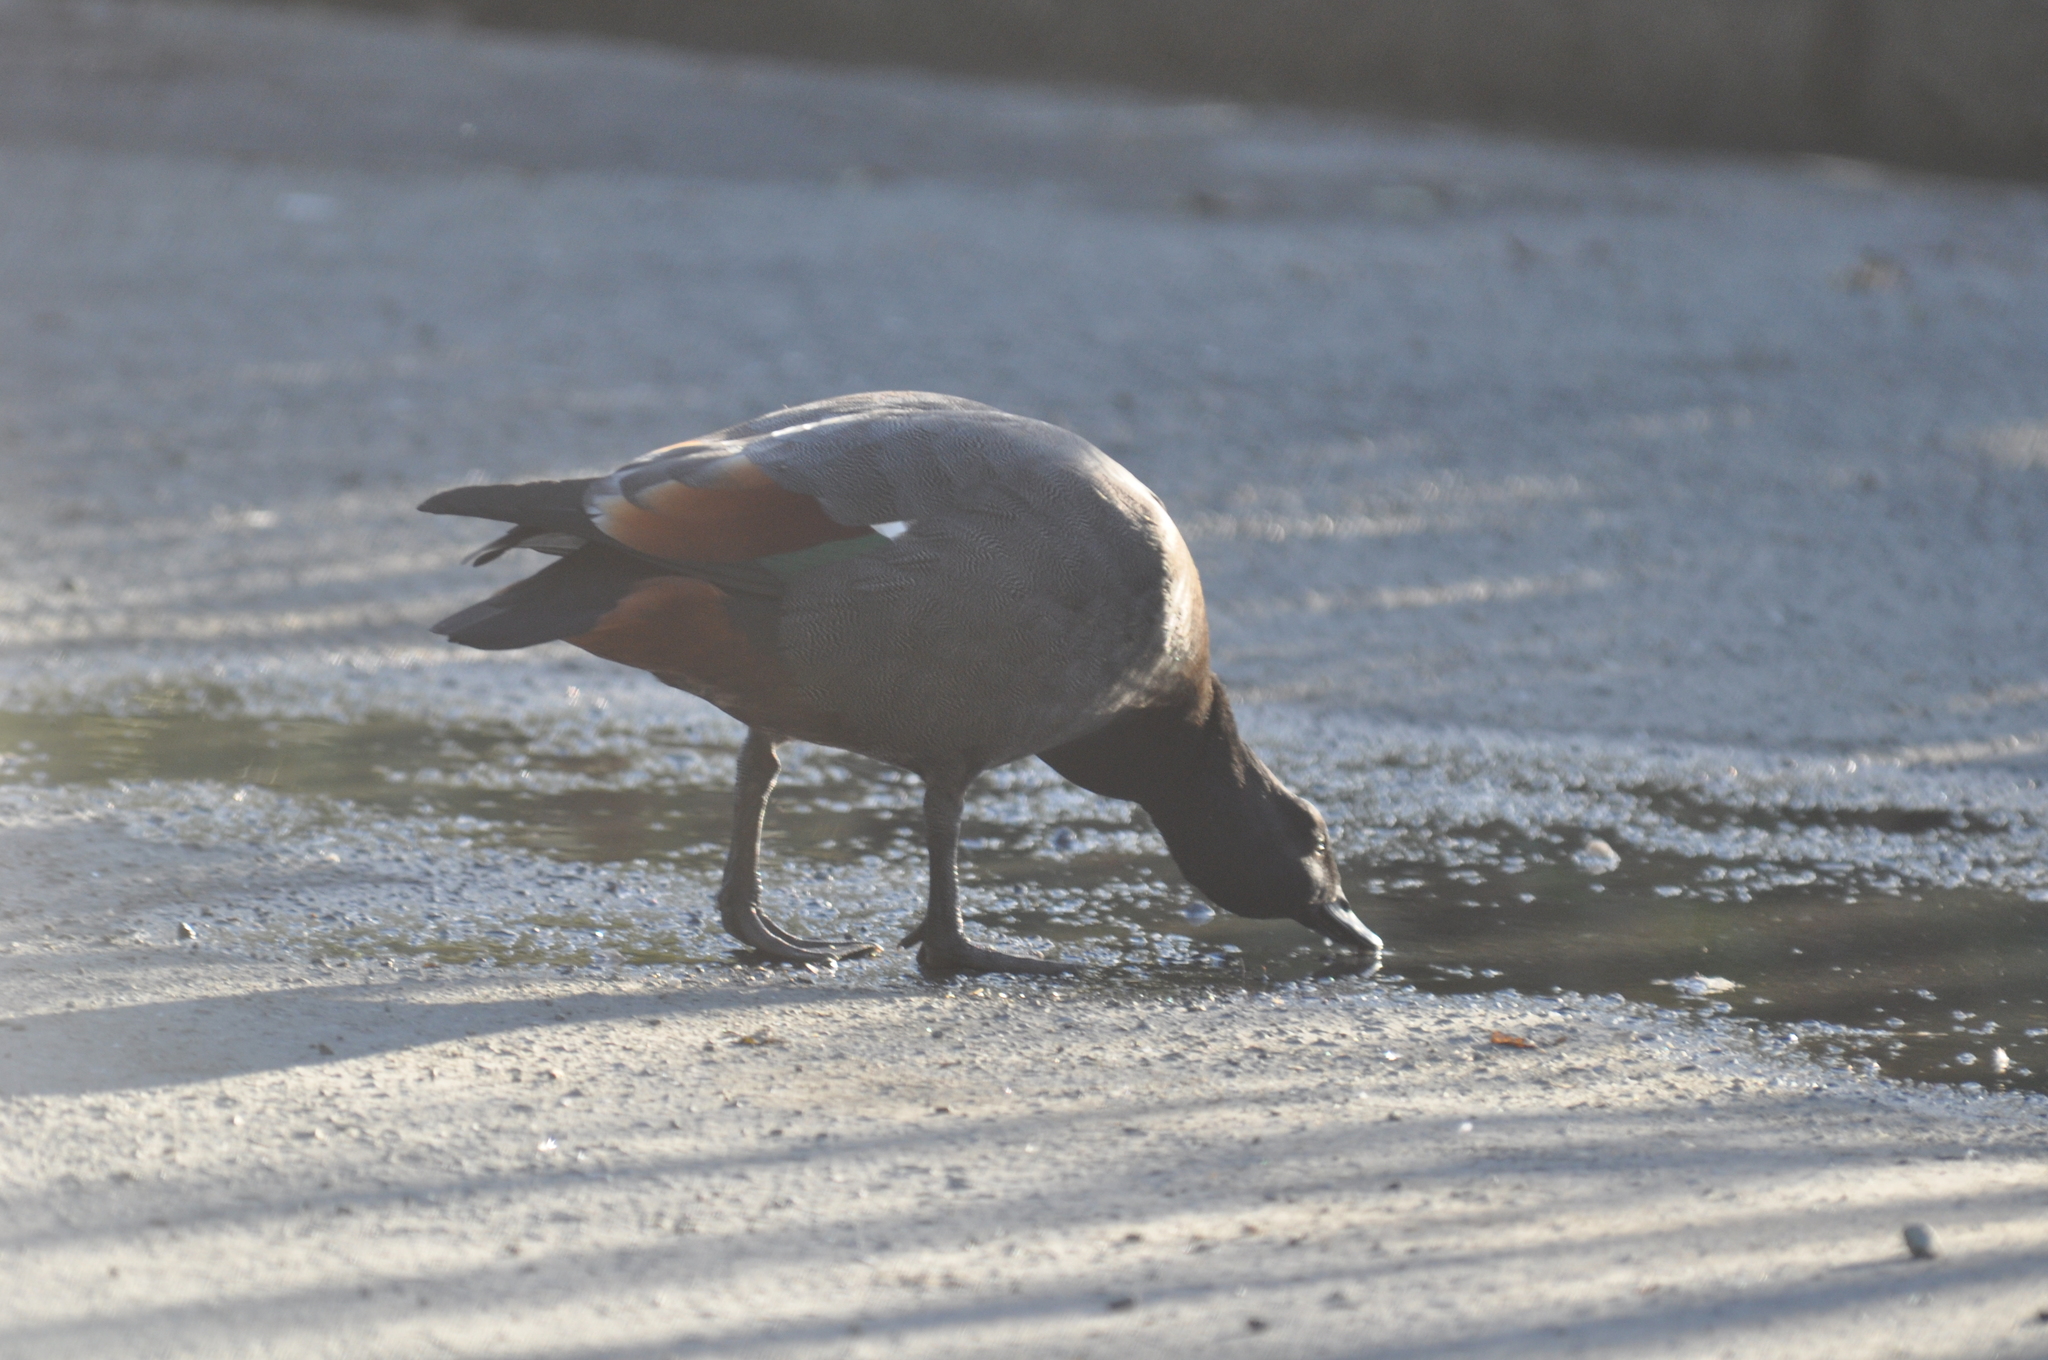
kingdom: Animalia
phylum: Chordata
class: Aves
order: Anseriformes
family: Anatidae
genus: Tadorna
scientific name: Tadorna variegata
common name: Paradise shelduck
